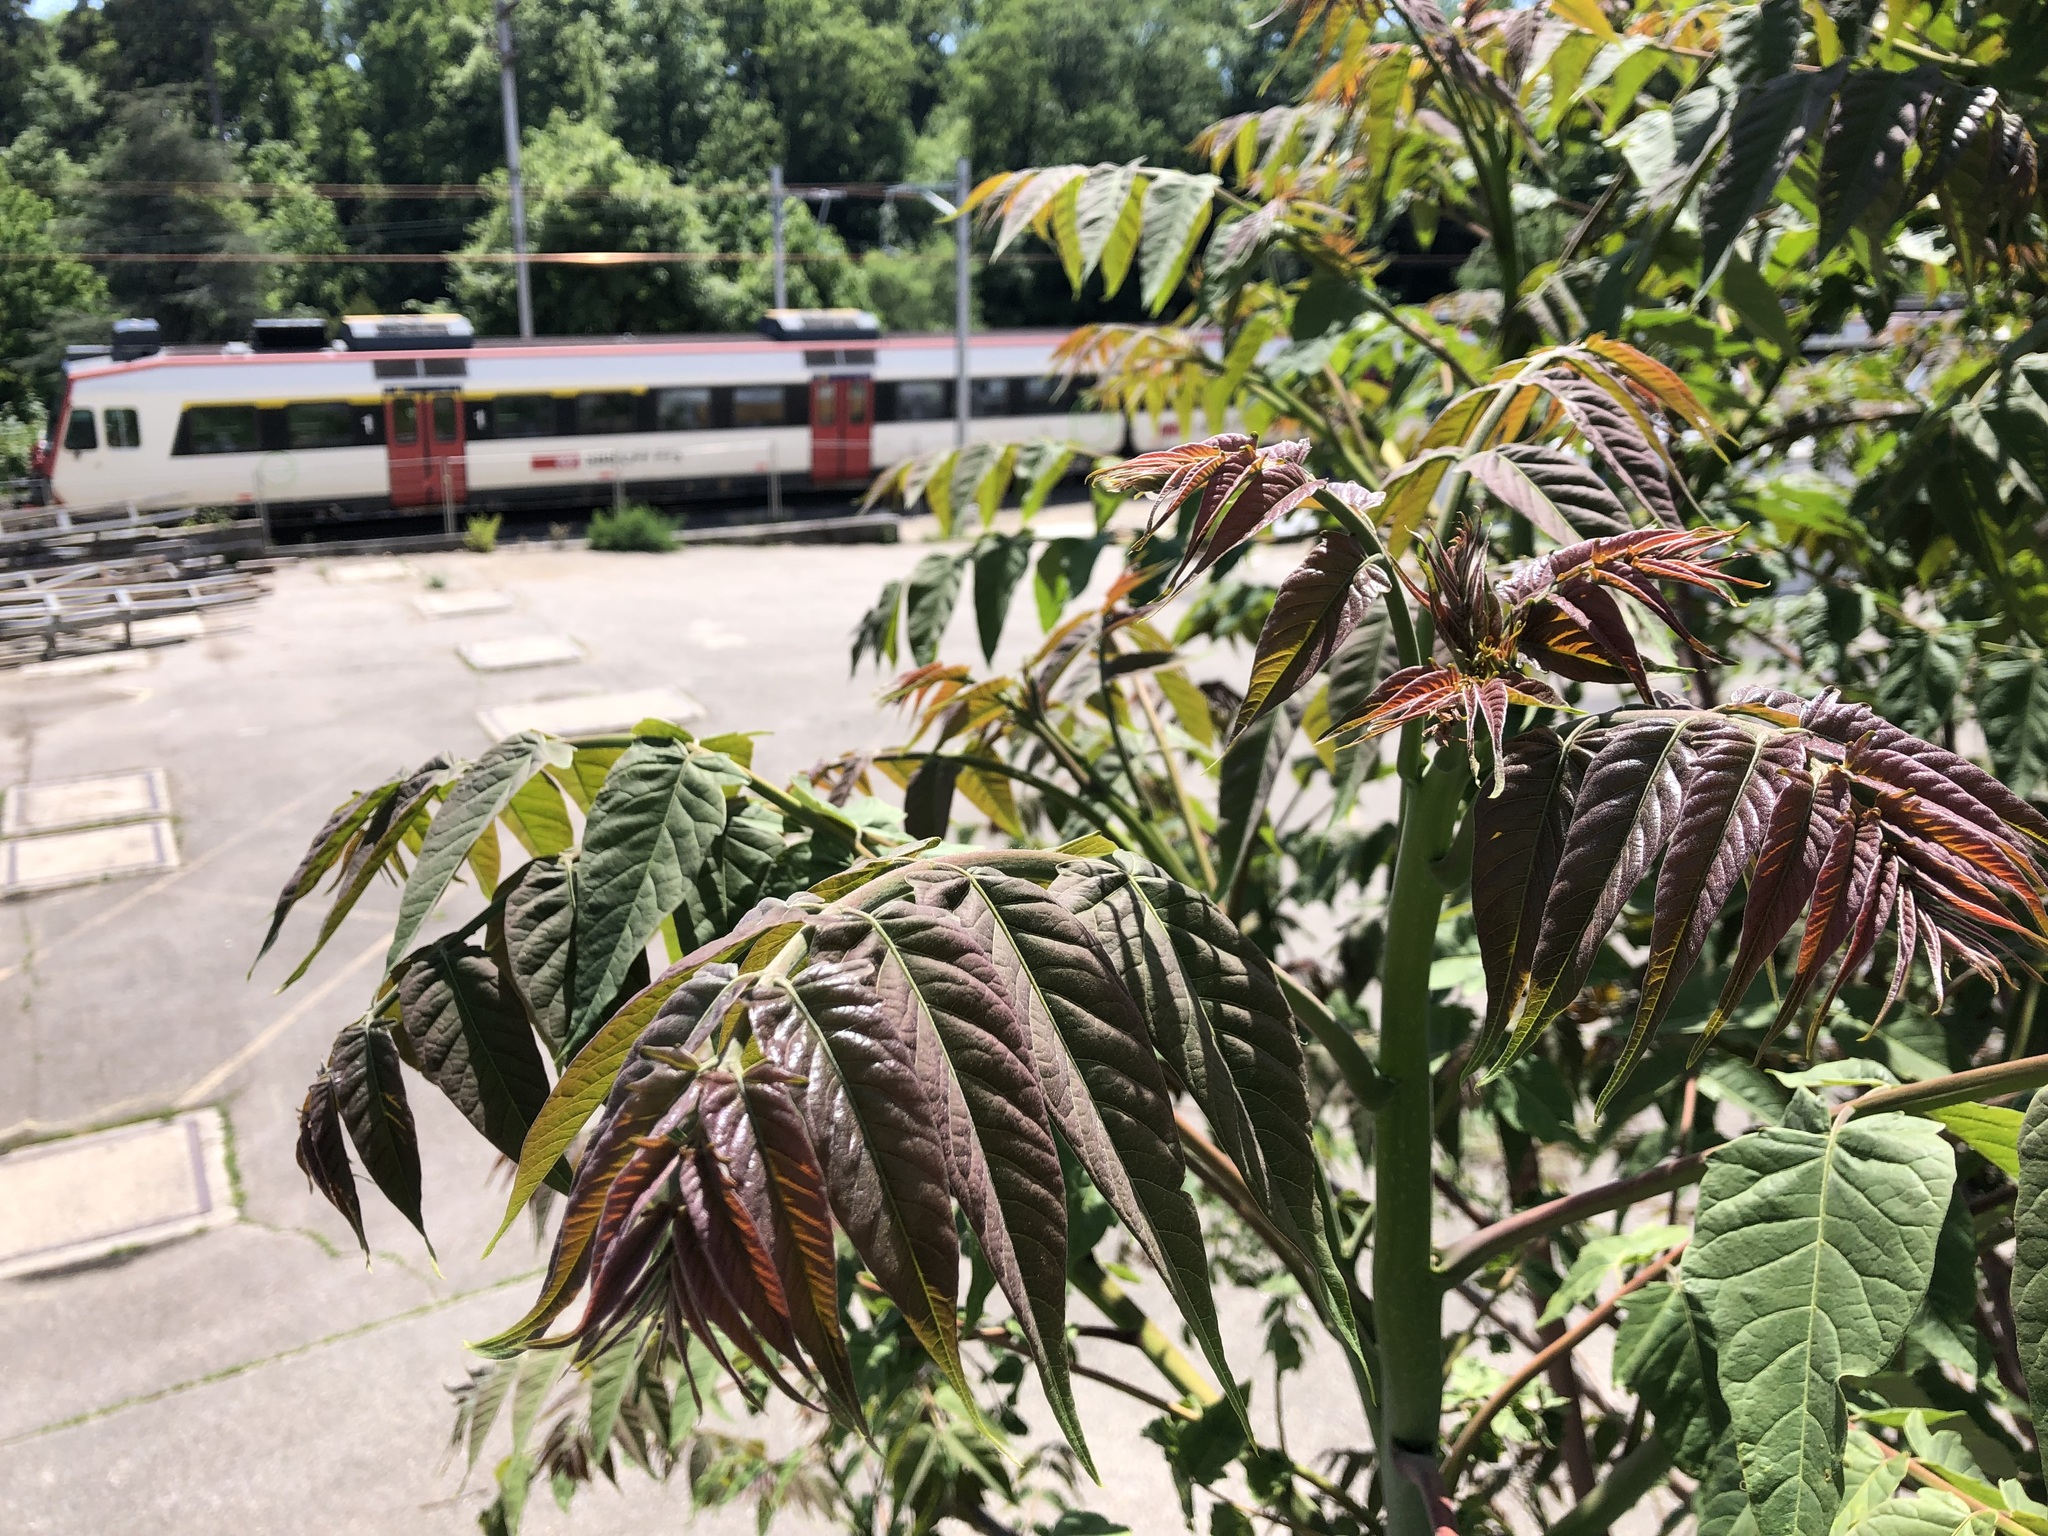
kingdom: Plantae
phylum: Tracheophyta
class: Magnoliopsida
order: Sapindales
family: Simaroubaceae
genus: Ailanthus
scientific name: Ailanthus altissima
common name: Tree-of-heaven
